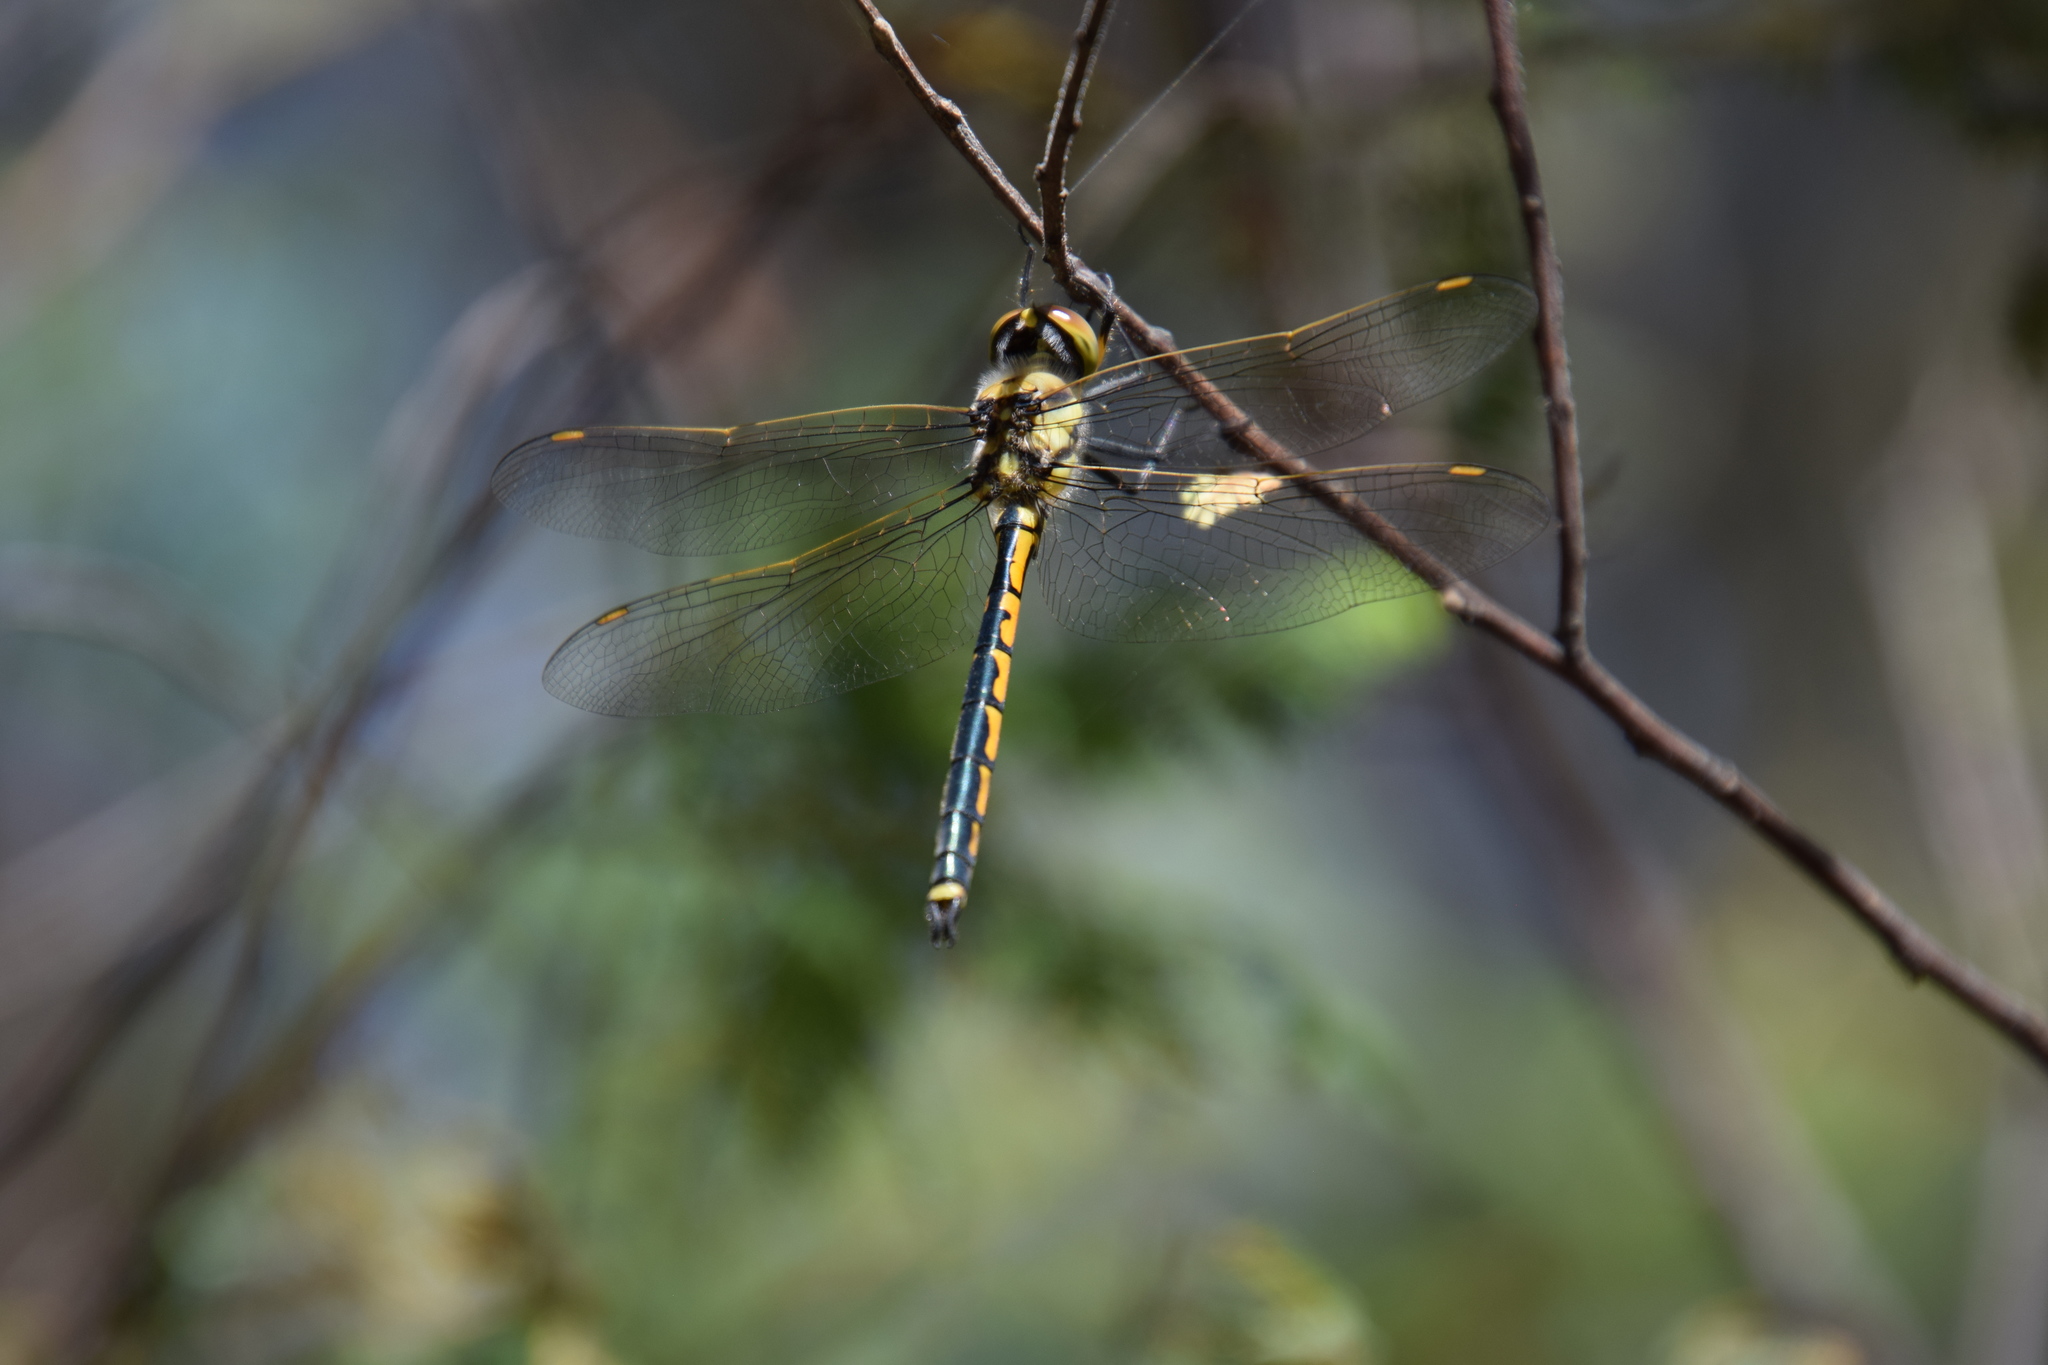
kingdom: Animalia
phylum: Arthropoda
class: Insecta
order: Odonata
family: Corduliidae
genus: Hemicordulia
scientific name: Hemicordulia tau
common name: Tau emerald
